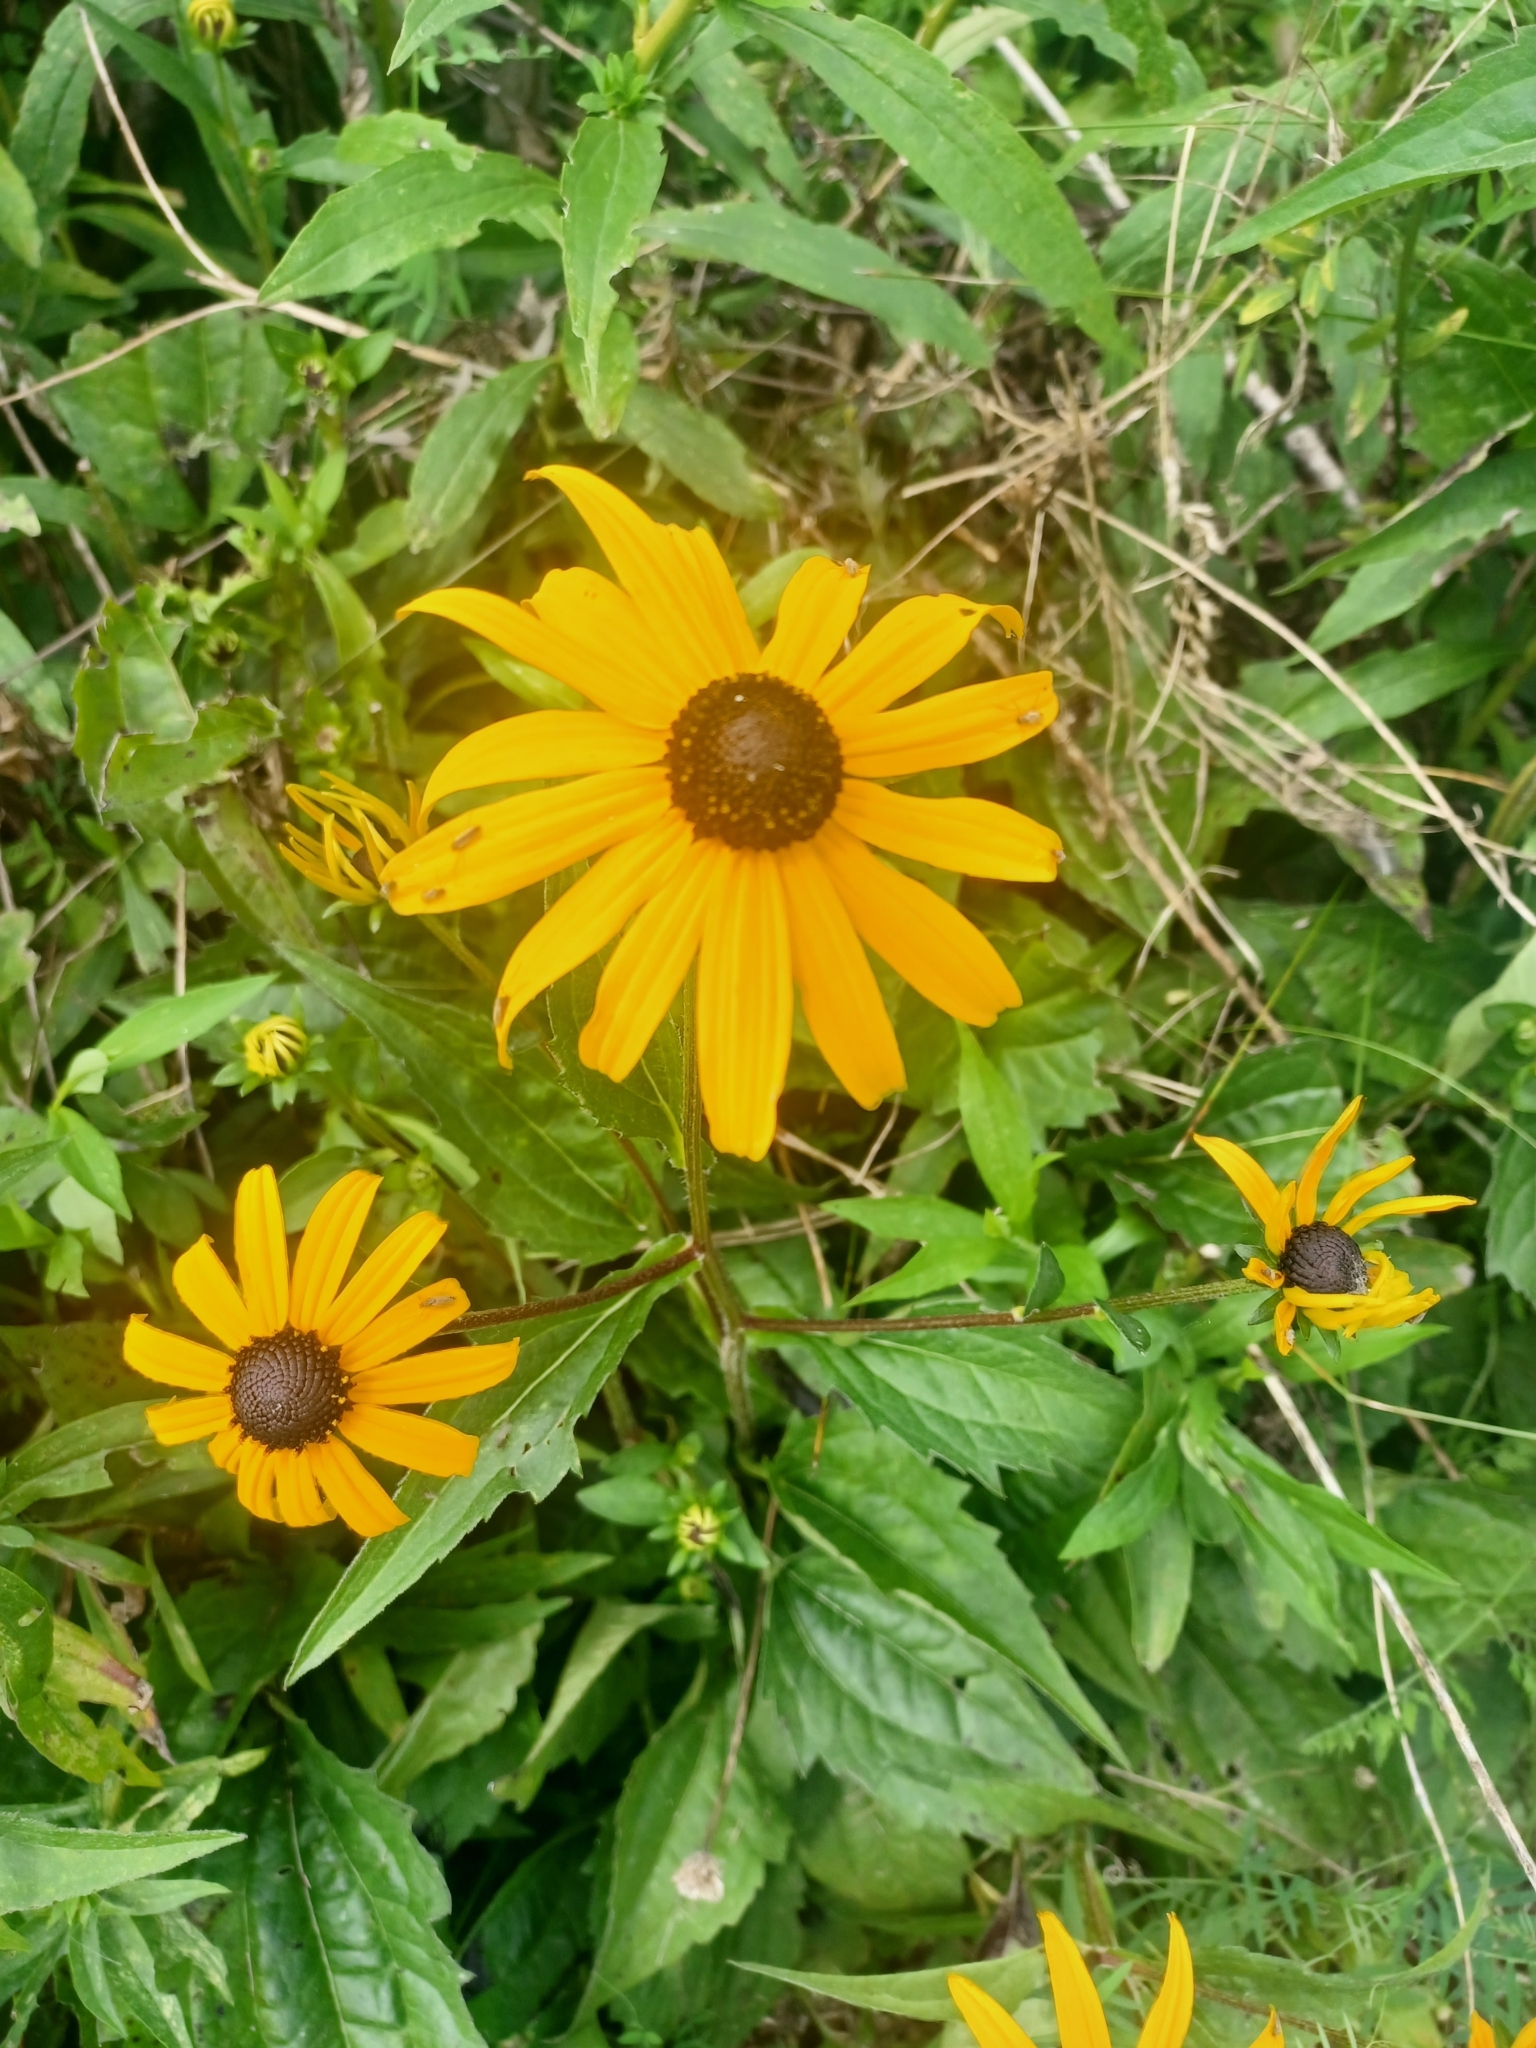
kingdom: Plantae
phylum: Tracheophyta
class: Magnoliopsida
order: Asterales
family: Asteraceae
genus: Rudbeckia
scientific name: Rudbeckia fulgida
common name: Perennial coneflower
